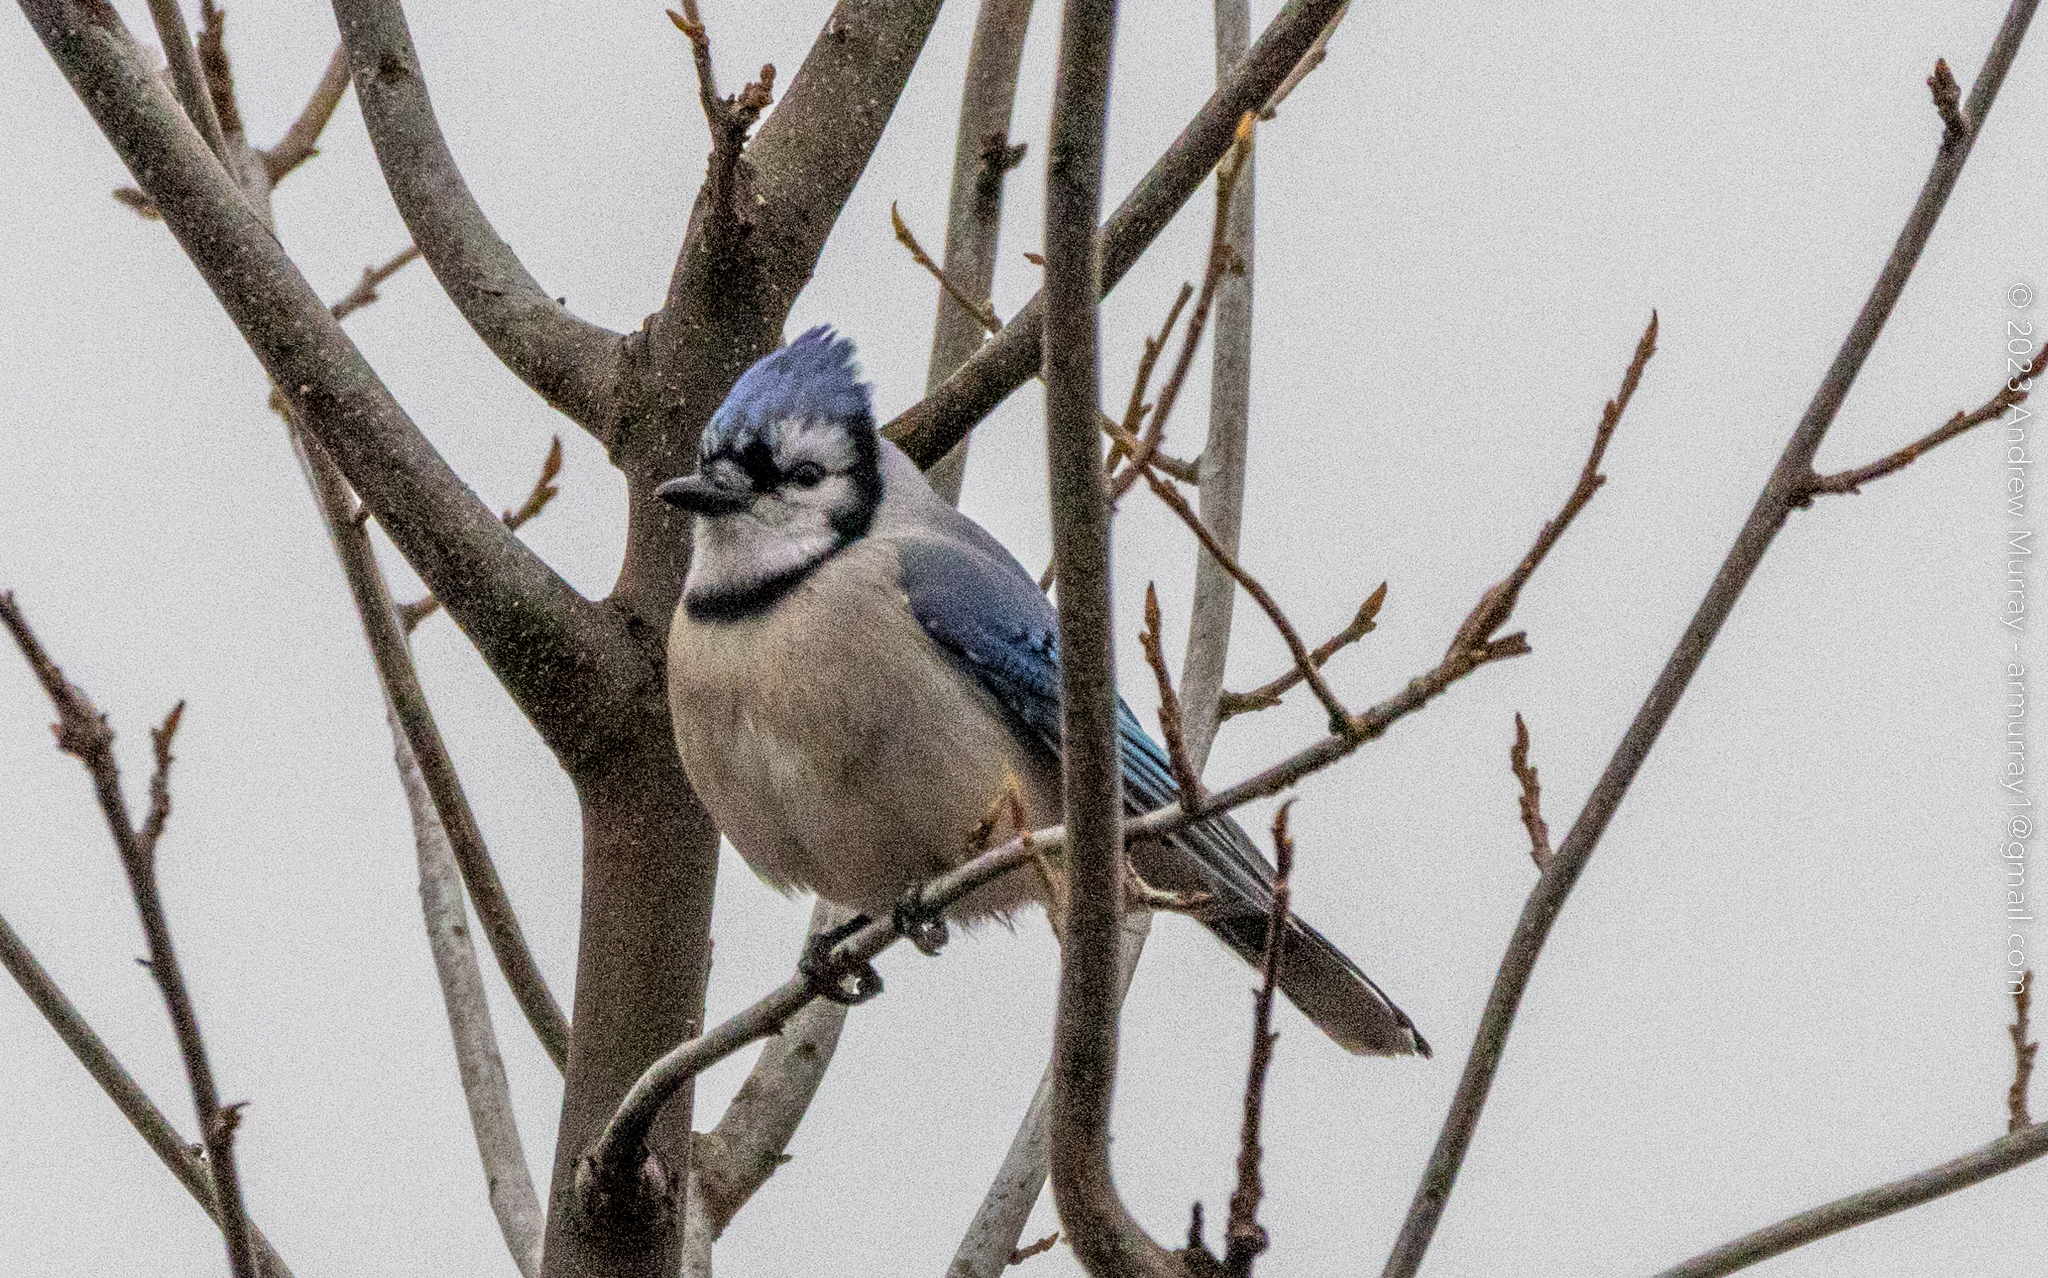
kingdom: Animalia
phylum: Chordata
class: Aves
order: Passeriformes
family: Corvidae
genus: Cyanocitta
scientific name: Cyanocitta cristata
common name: Blue jay
